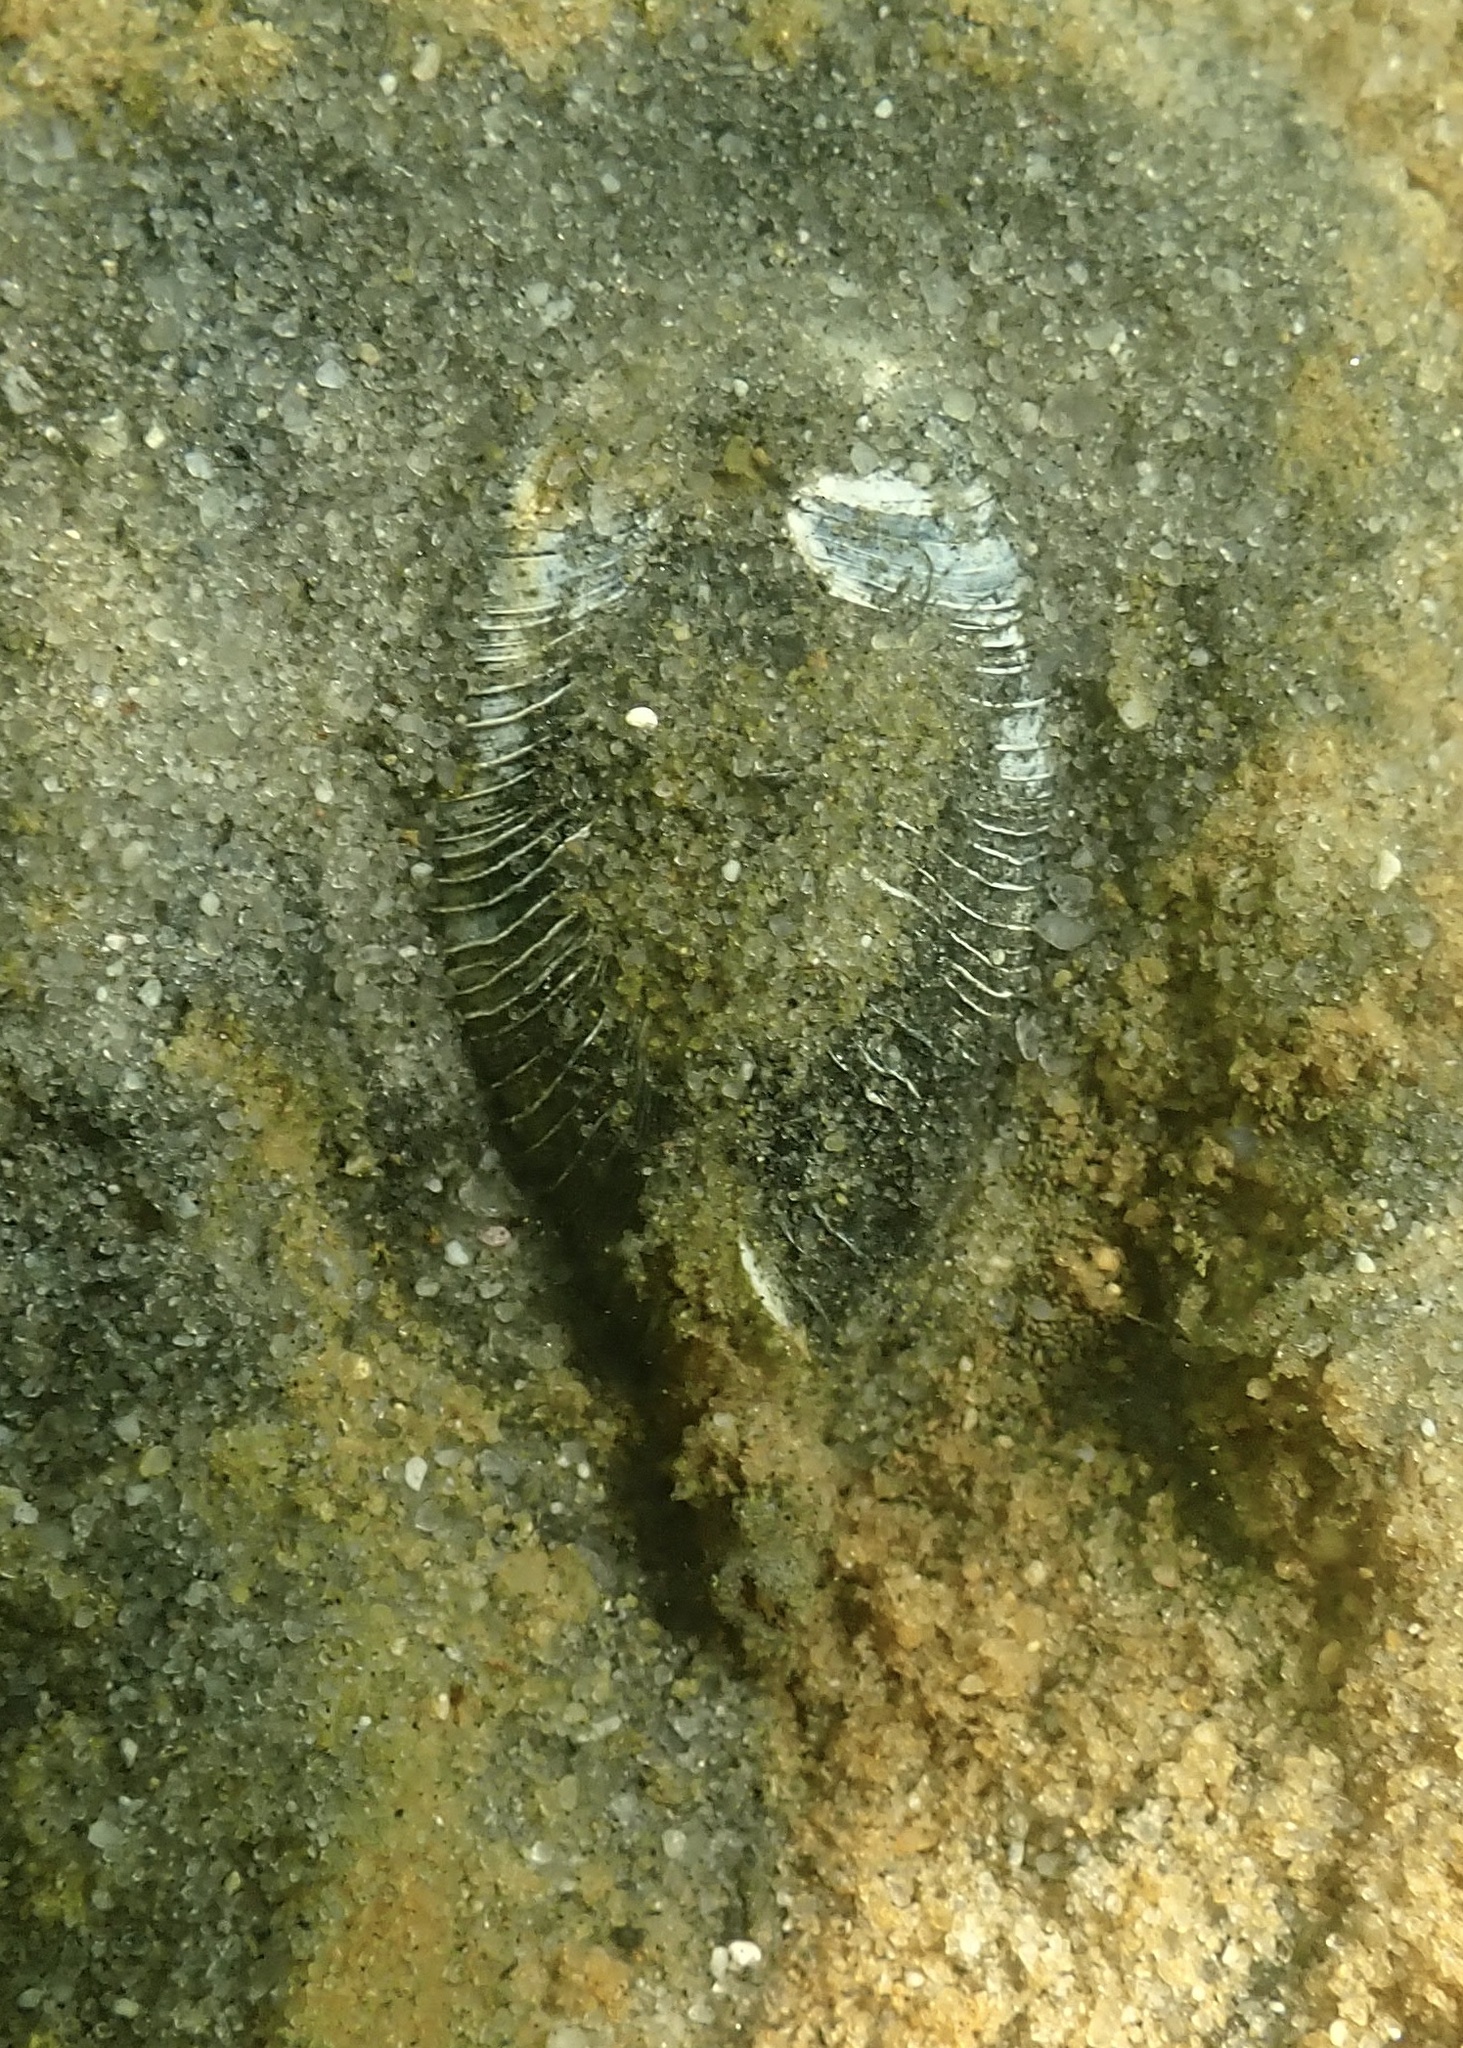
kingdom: Animalia
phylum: Mollusca
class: Bivalvia
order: Venerida
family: Veneridae
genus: Mercenaria
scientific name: Mercenaria mercenaria
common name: American hard-shelled clam
